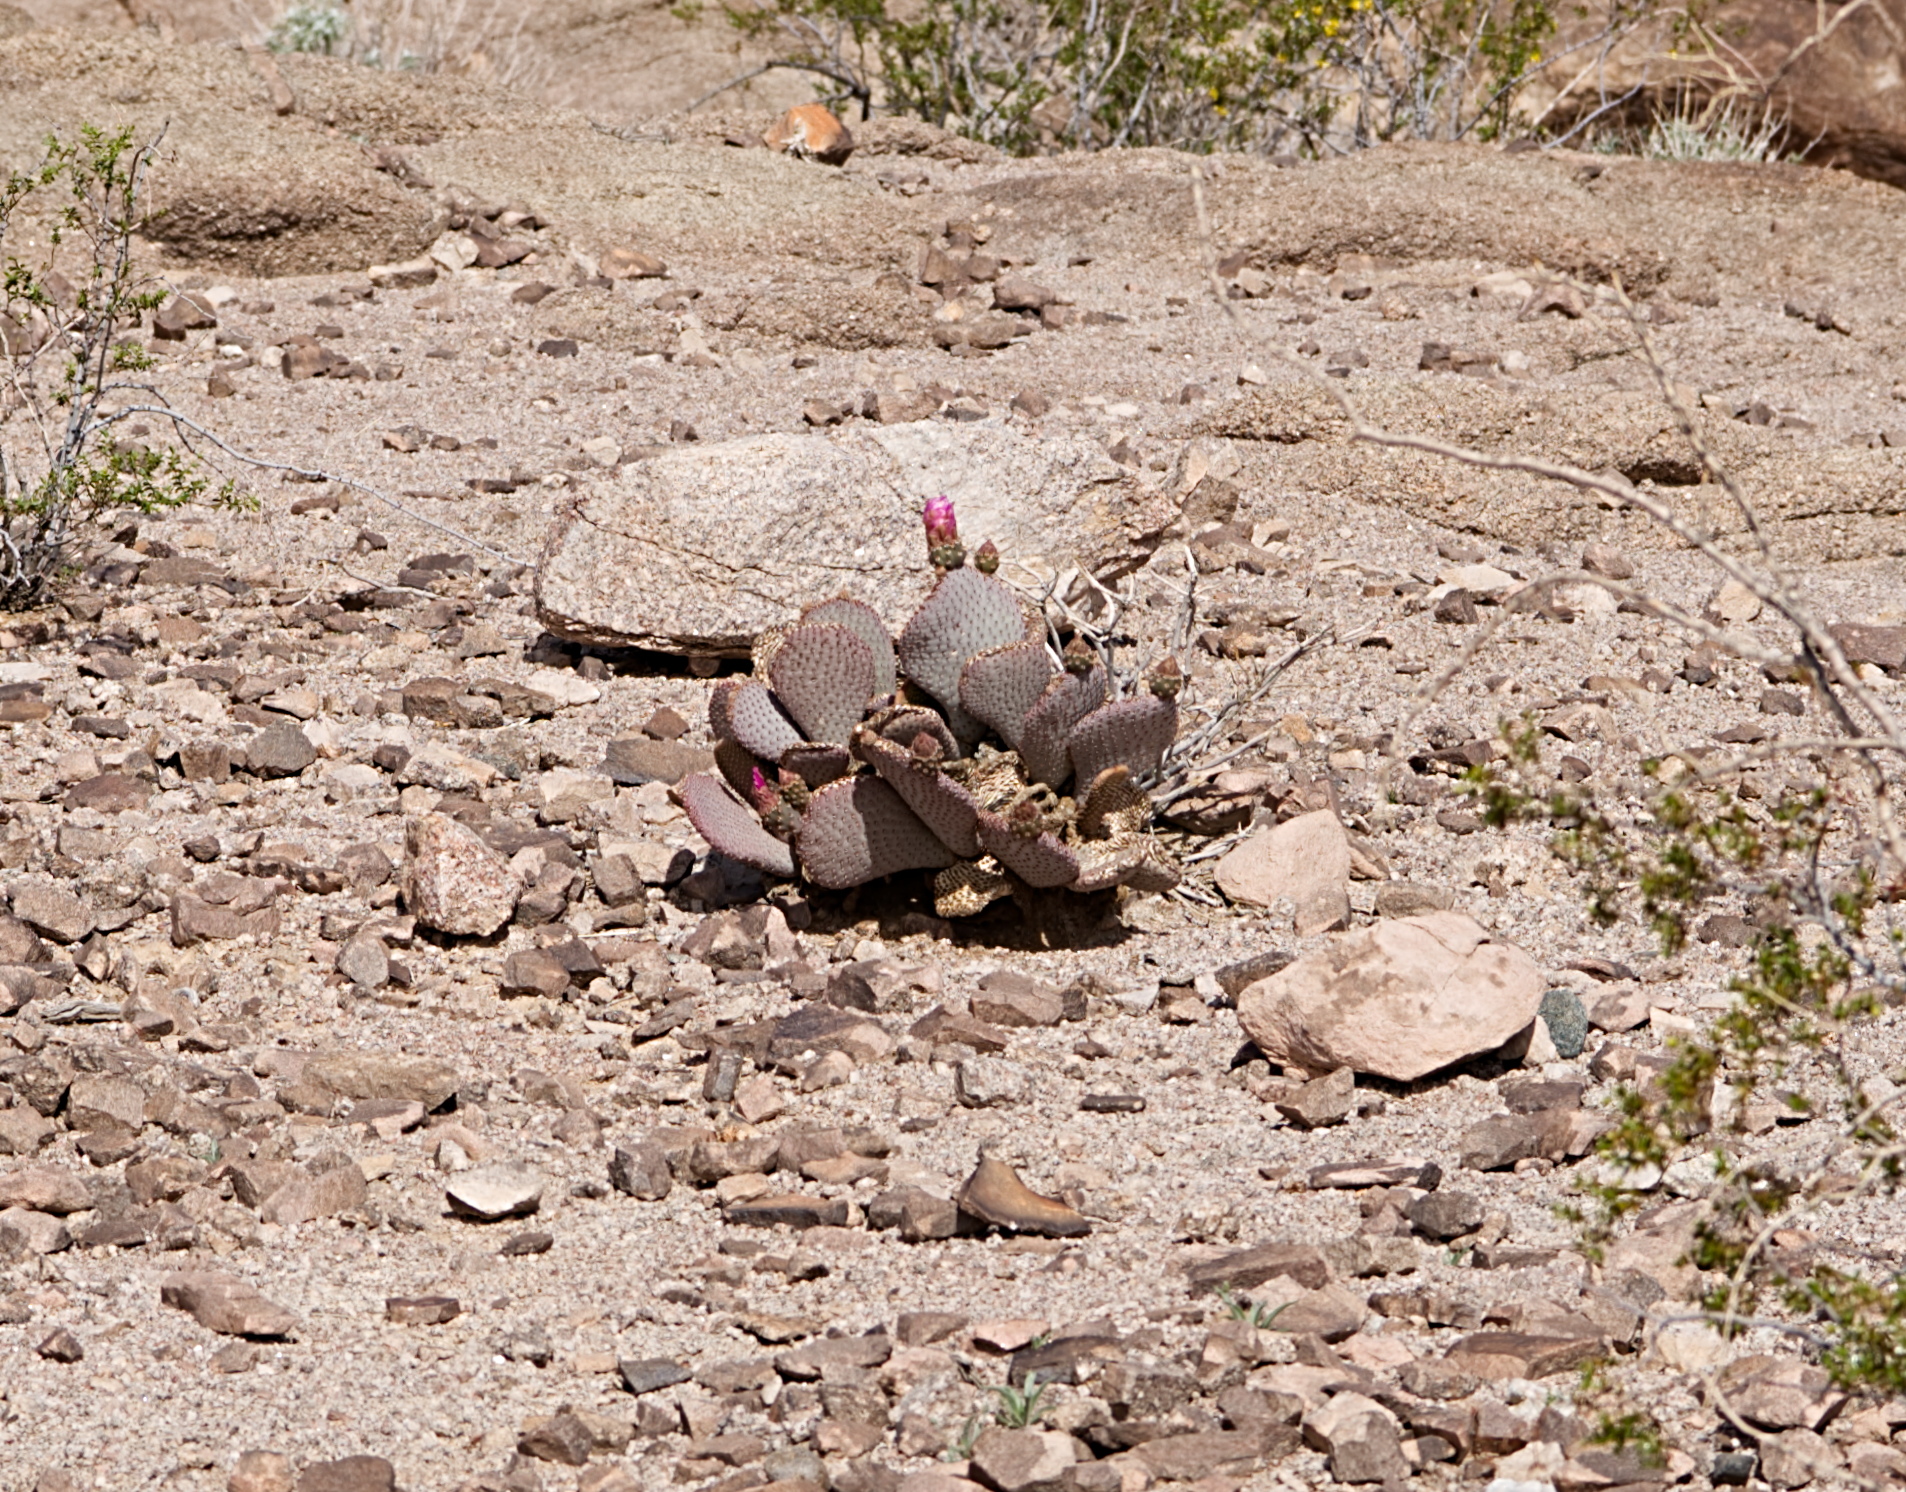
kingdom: Plantae
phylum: Tracheophyta
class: Magnoliopsida
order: Caryophyllales
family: Cactaceae
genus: Opuntia
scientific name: Opuntia basilaris
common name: Beavertail prickly-pear
